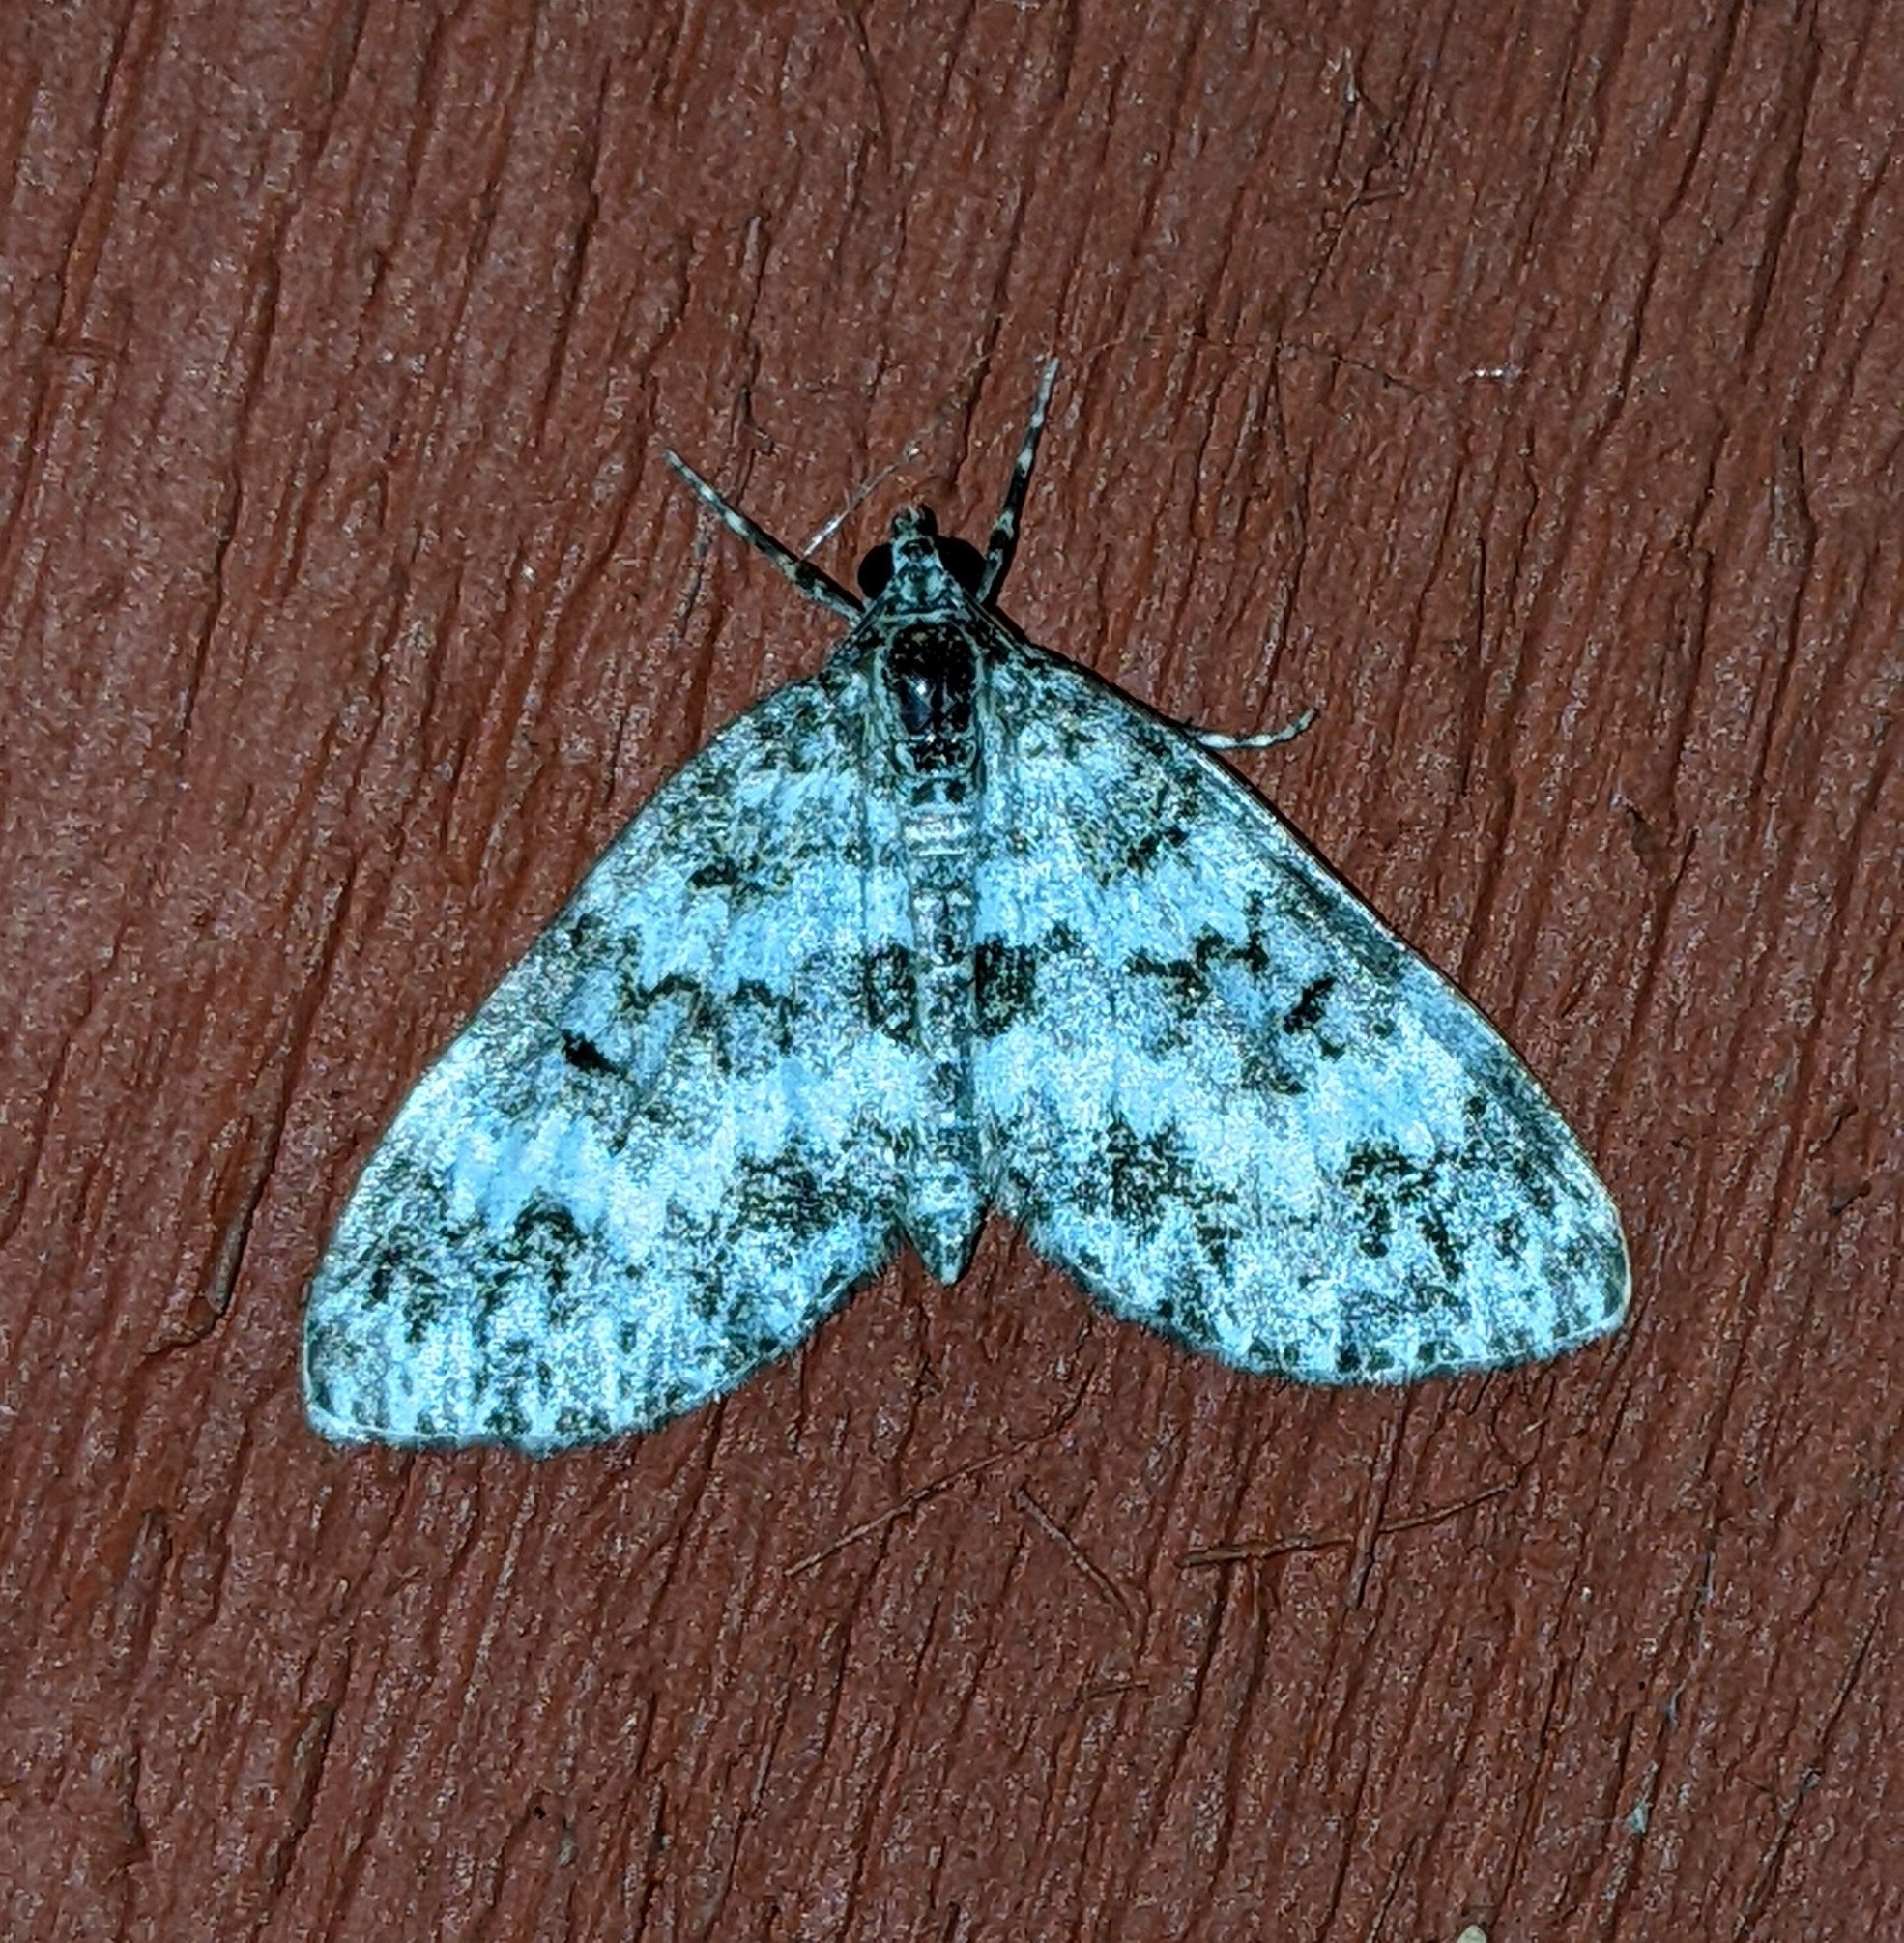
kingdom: Animalia
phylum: Arthropoda
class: Insecta
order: Lepidoptera
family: Geometridae
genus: Spargania
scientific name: Spargania magnoliata
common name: Double-banded carpet
